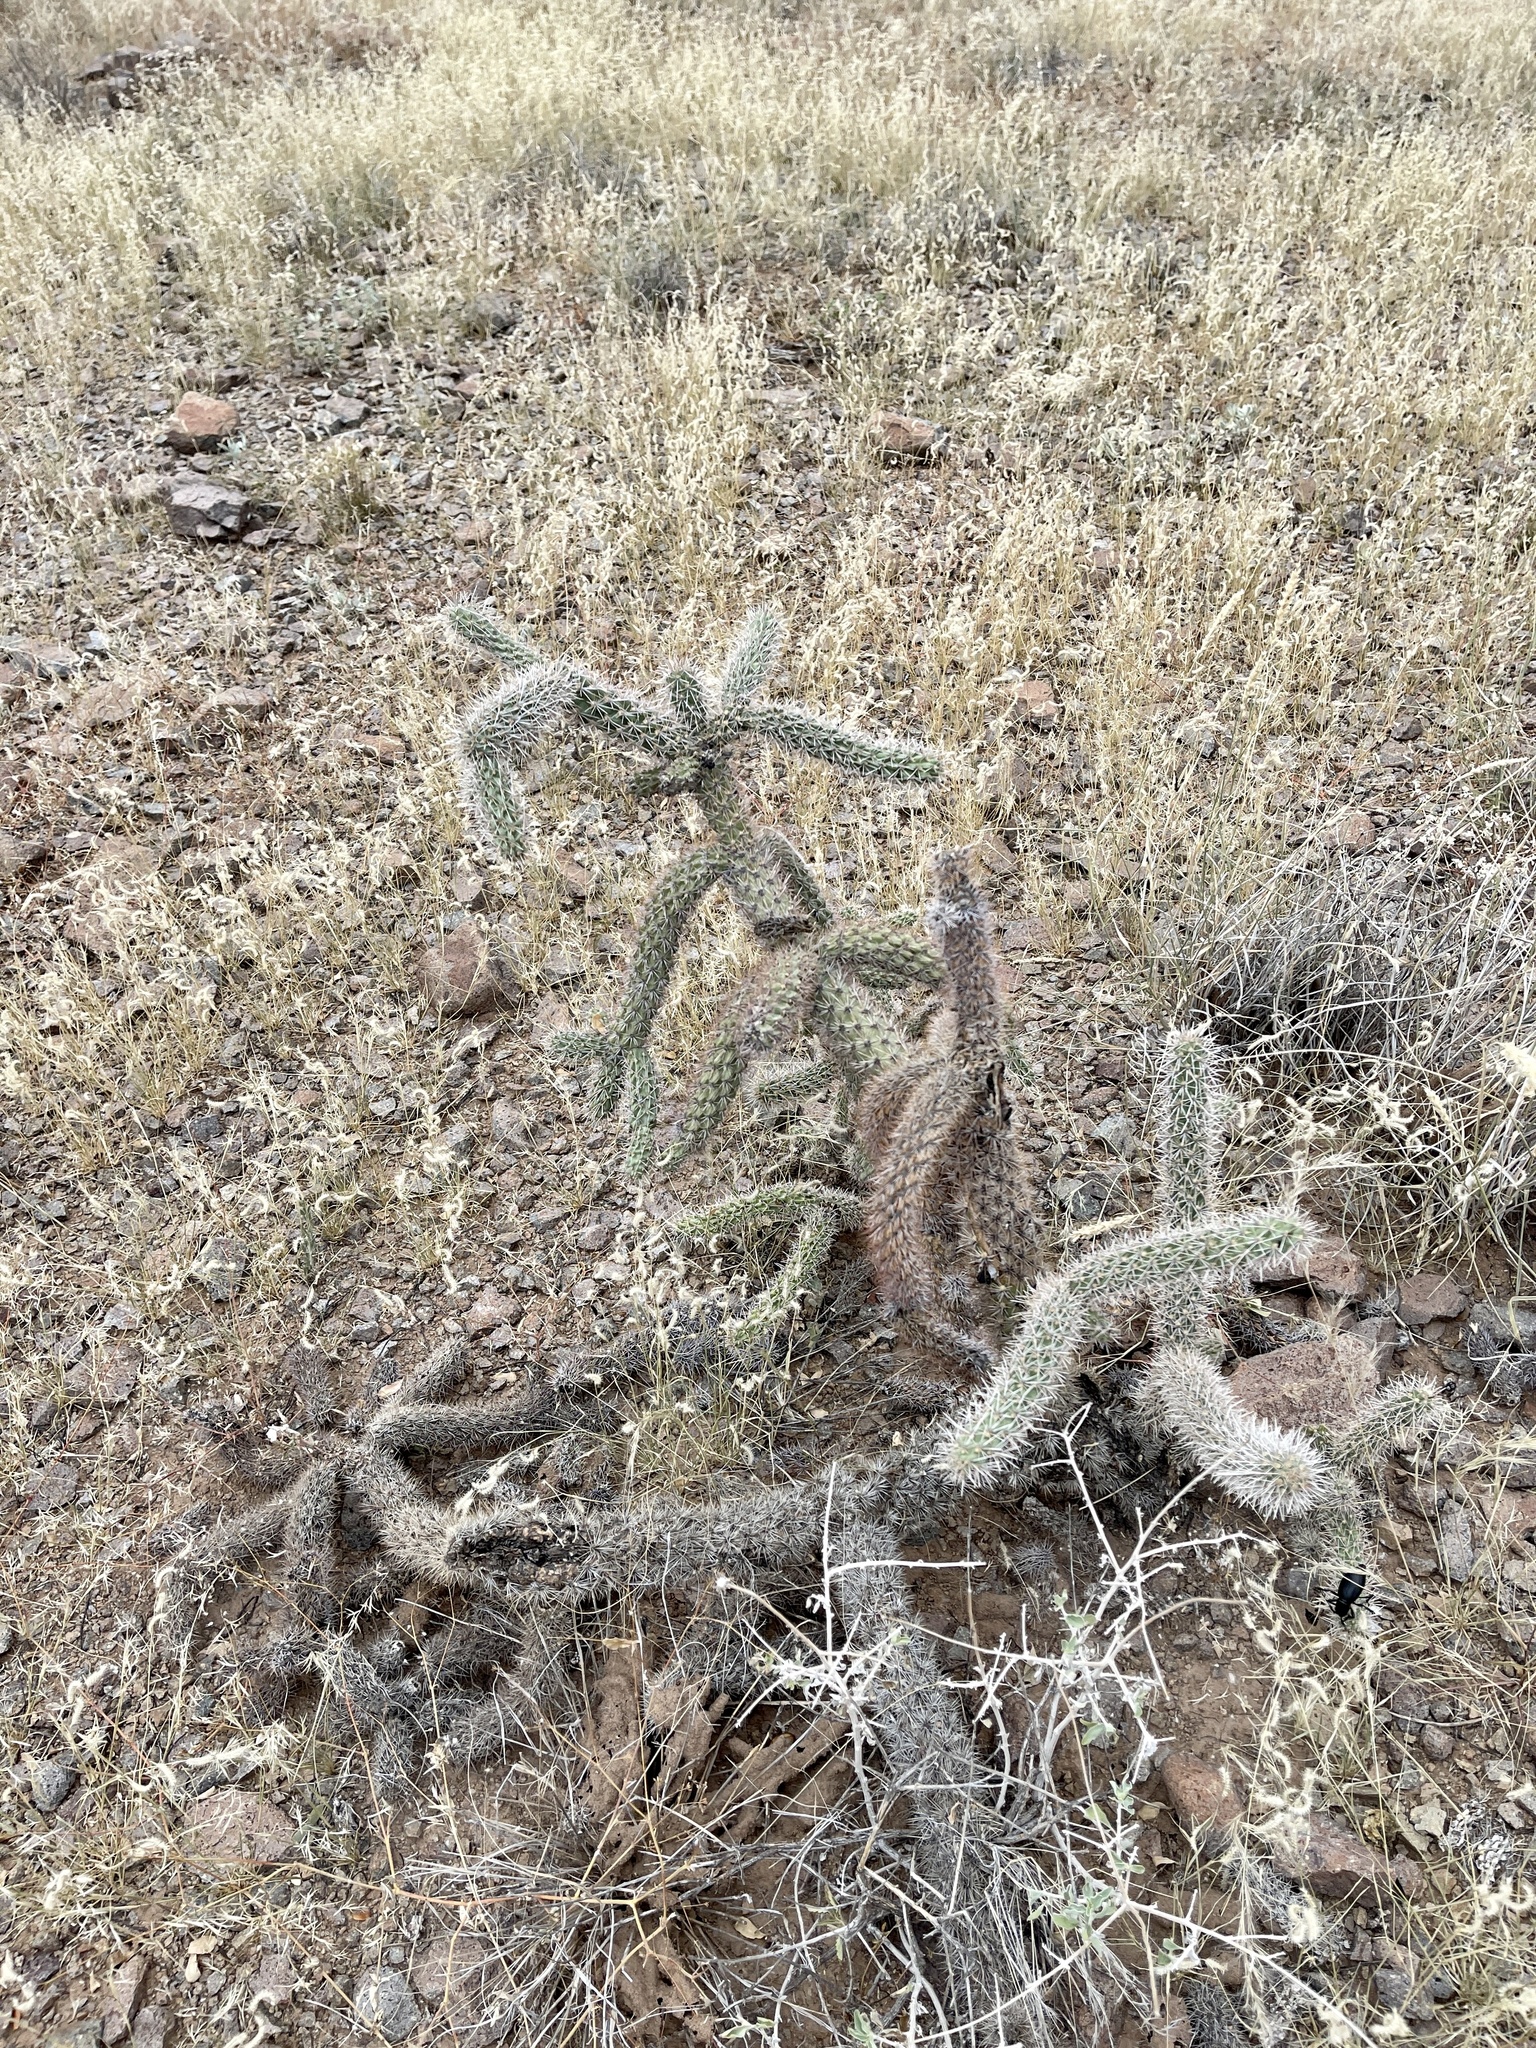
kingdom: Plantae
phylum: Tracheophyta
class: Magnoliopsida
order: Caryophyllales
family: Cactaceae
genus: Cylindropuntia
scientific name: Cylindropuntia imbricata
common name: Candelabrum cactus
